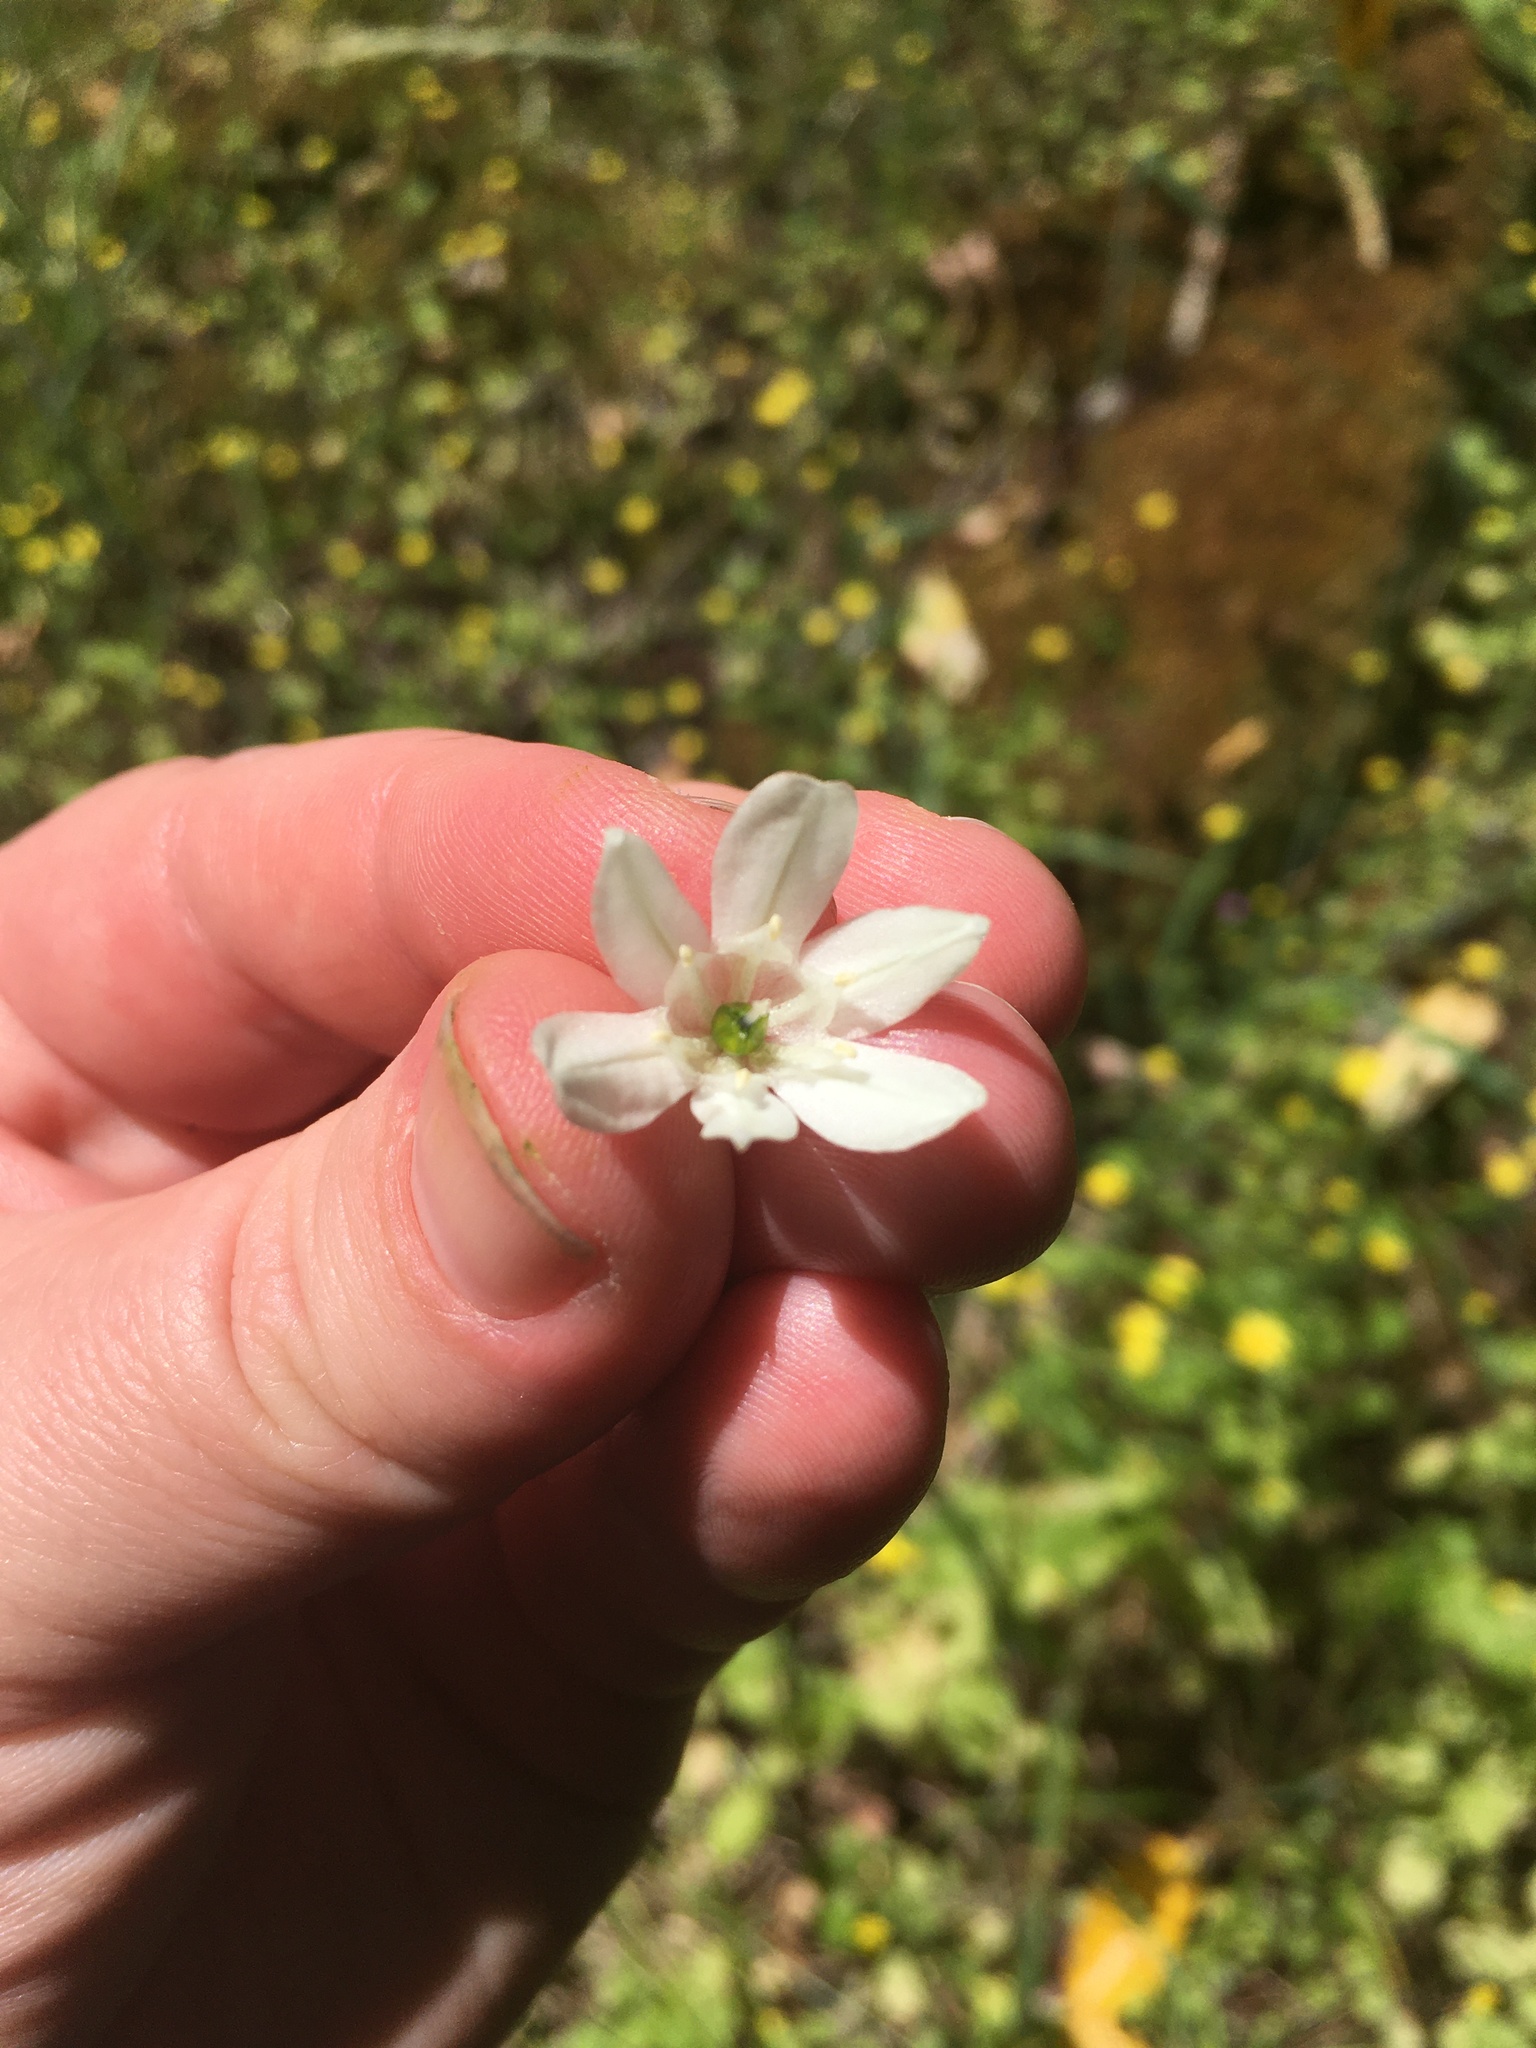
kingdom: Plantae
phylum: Tracheophyta
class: Liliopsida
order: Asparagales
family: Asparagaceae
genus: Triteleia
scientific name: Triteleia hyacinthina
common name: White brodiaea
